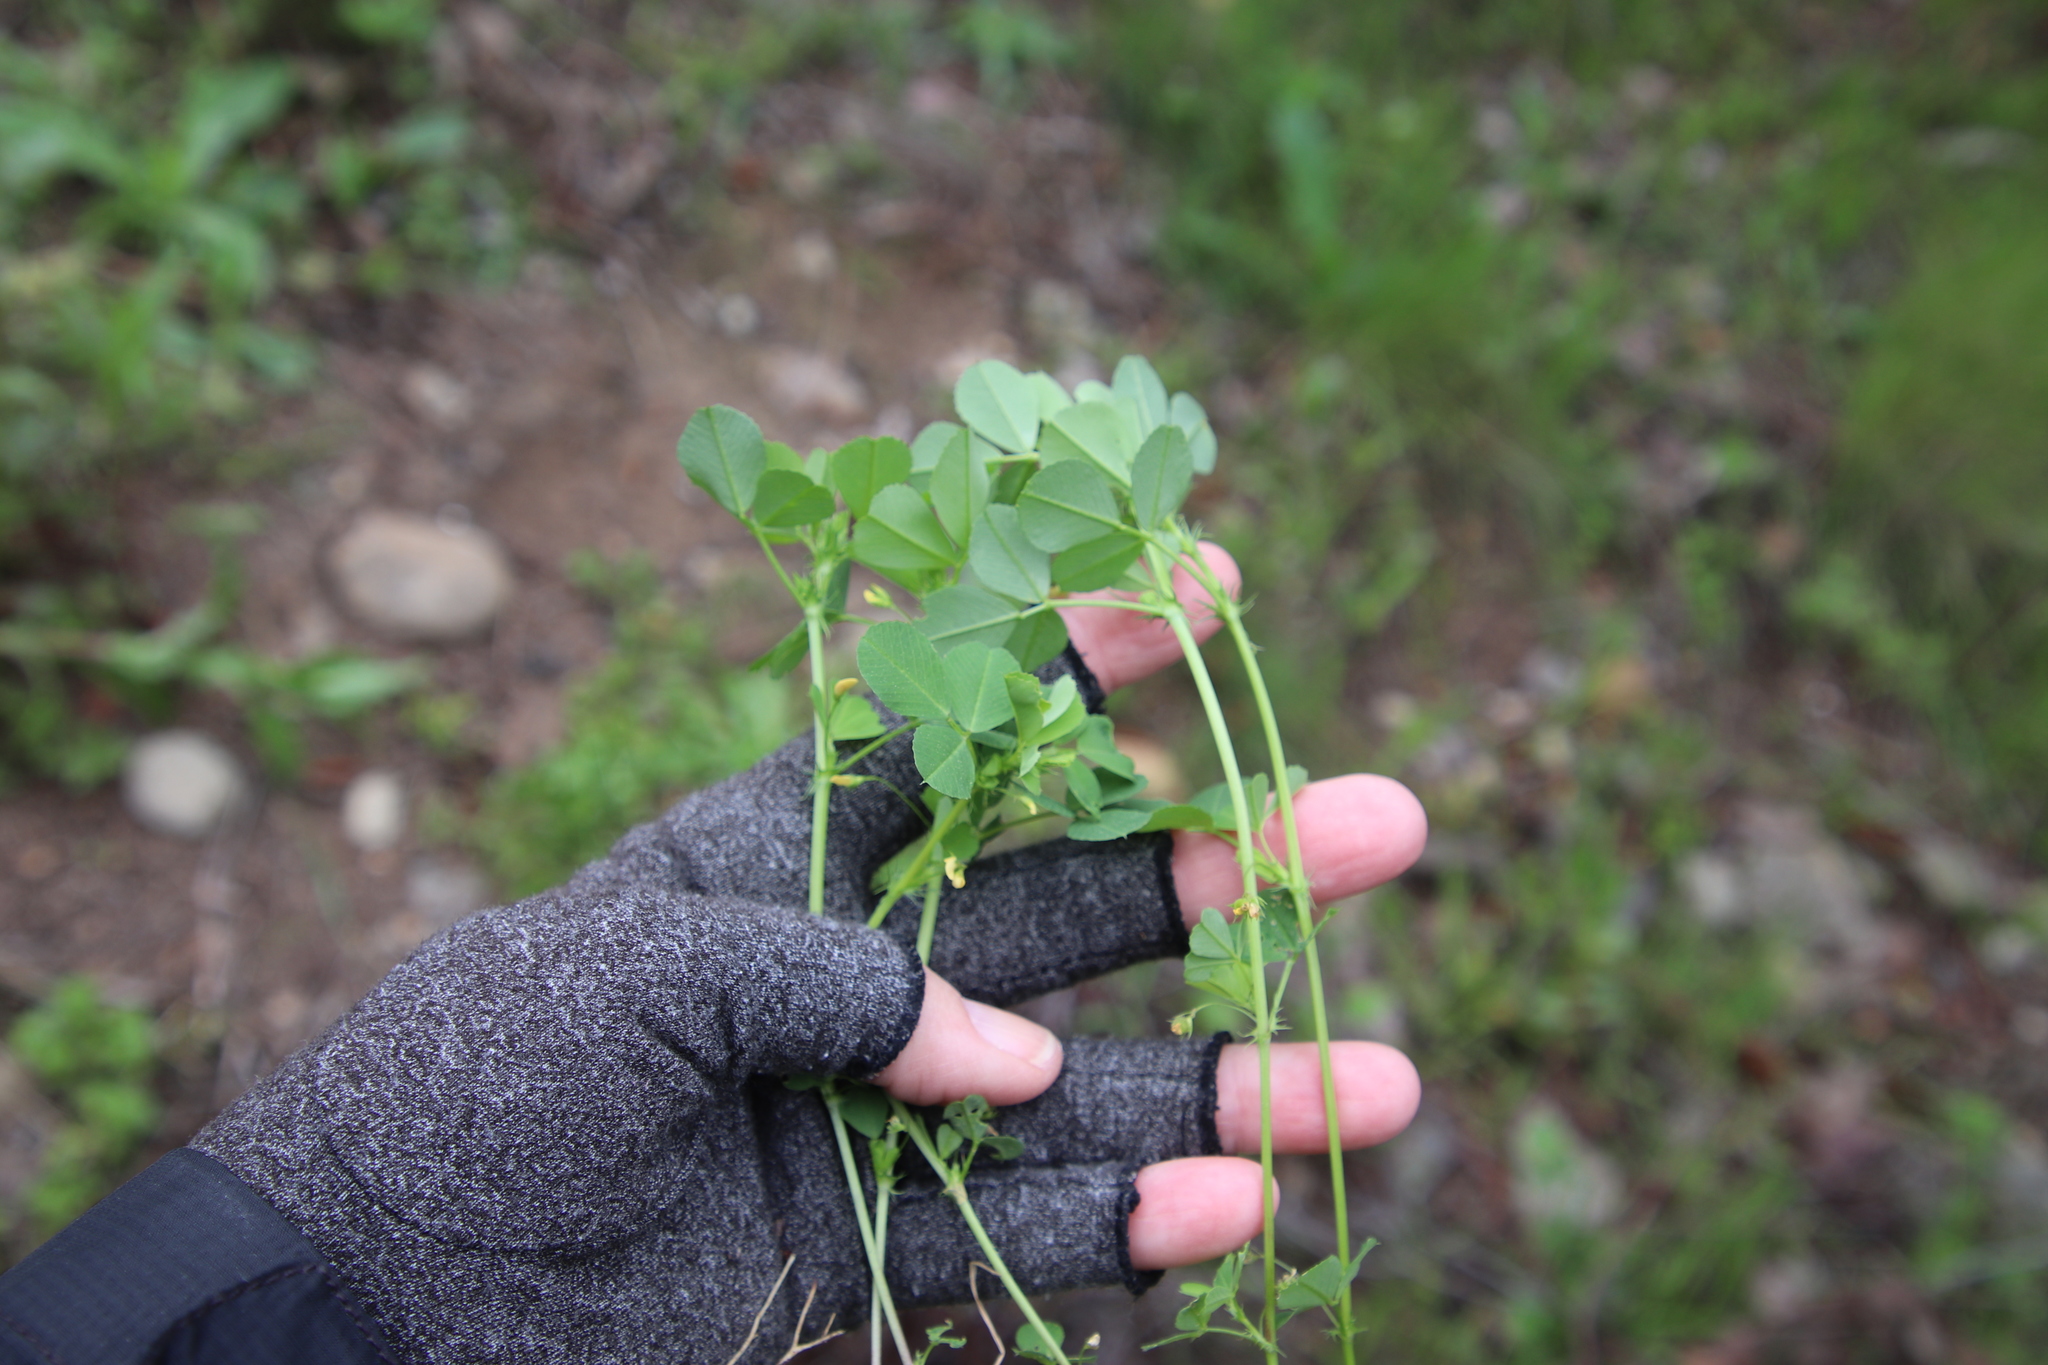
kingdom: Plantae
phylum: Tracheophyta
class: Magnoliopsida
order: Fabales
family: Fabaceae
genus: Medicago
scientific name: Medicago polymorpha
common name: Burclover
